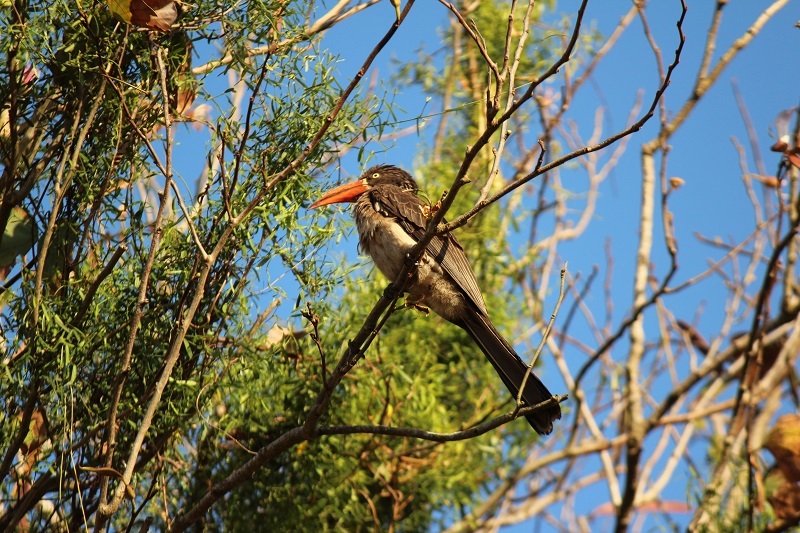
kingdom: Animalia
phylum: Chordata
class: Aves
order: Bucerotiformes
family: Bucerotidae
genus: Lophoceros
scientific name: Lophoceros alboterminatus
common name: Crowned hornbill
